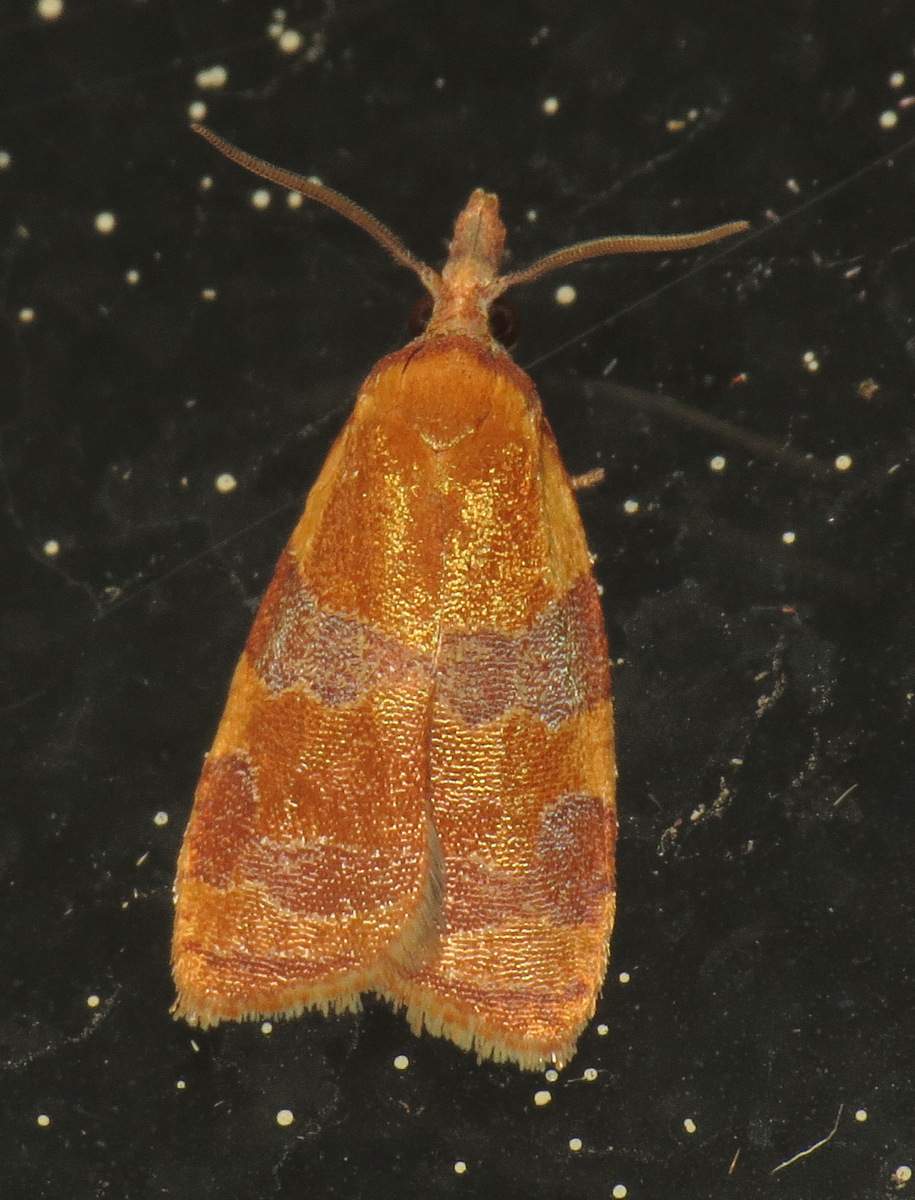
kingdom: Animalia
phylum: Arthropoda
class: Insecta
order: Lepidoptera
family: Tortricidae
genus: Cenopis
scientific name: Cenopis diluticostana
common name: Spring dead-leaf roller moth
